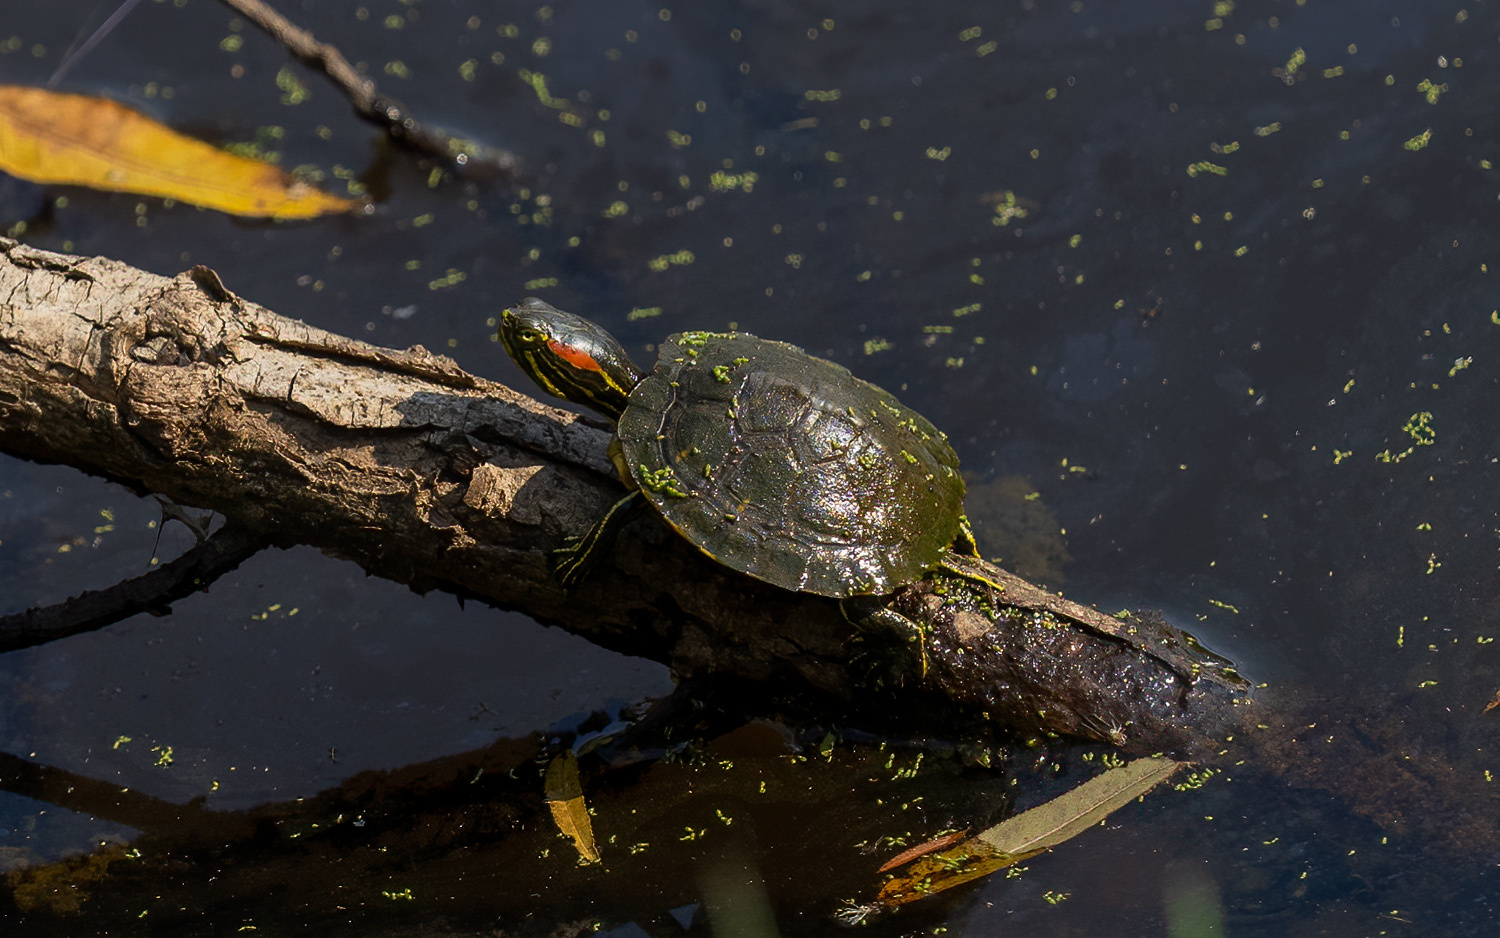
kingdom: Animalia
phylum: Chordata
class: Testudines
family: Emydidae
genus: Trachemys
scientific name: Trachemys scripta
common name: Slider
